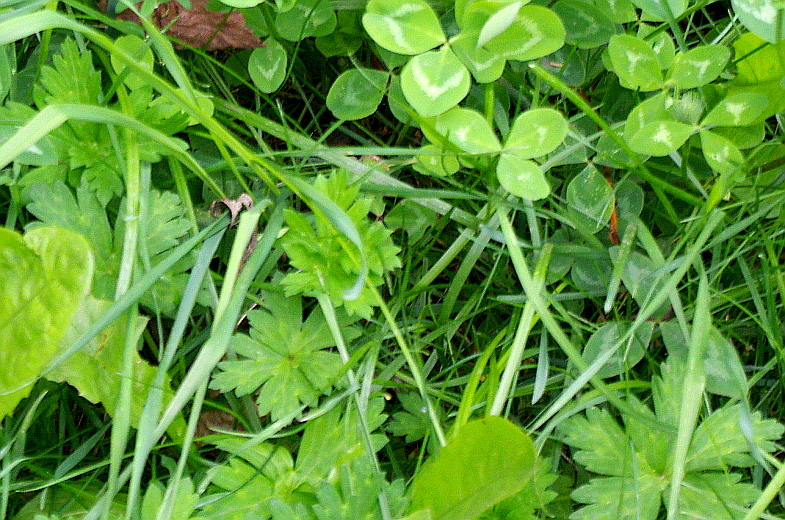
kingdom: Plantae
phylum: Tracheophyta
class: Magnoliopsida
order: Geraniales
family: Geraniaceae
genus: Geranium
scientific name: Geranium sibiricum
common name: Siberian crane's-bill
